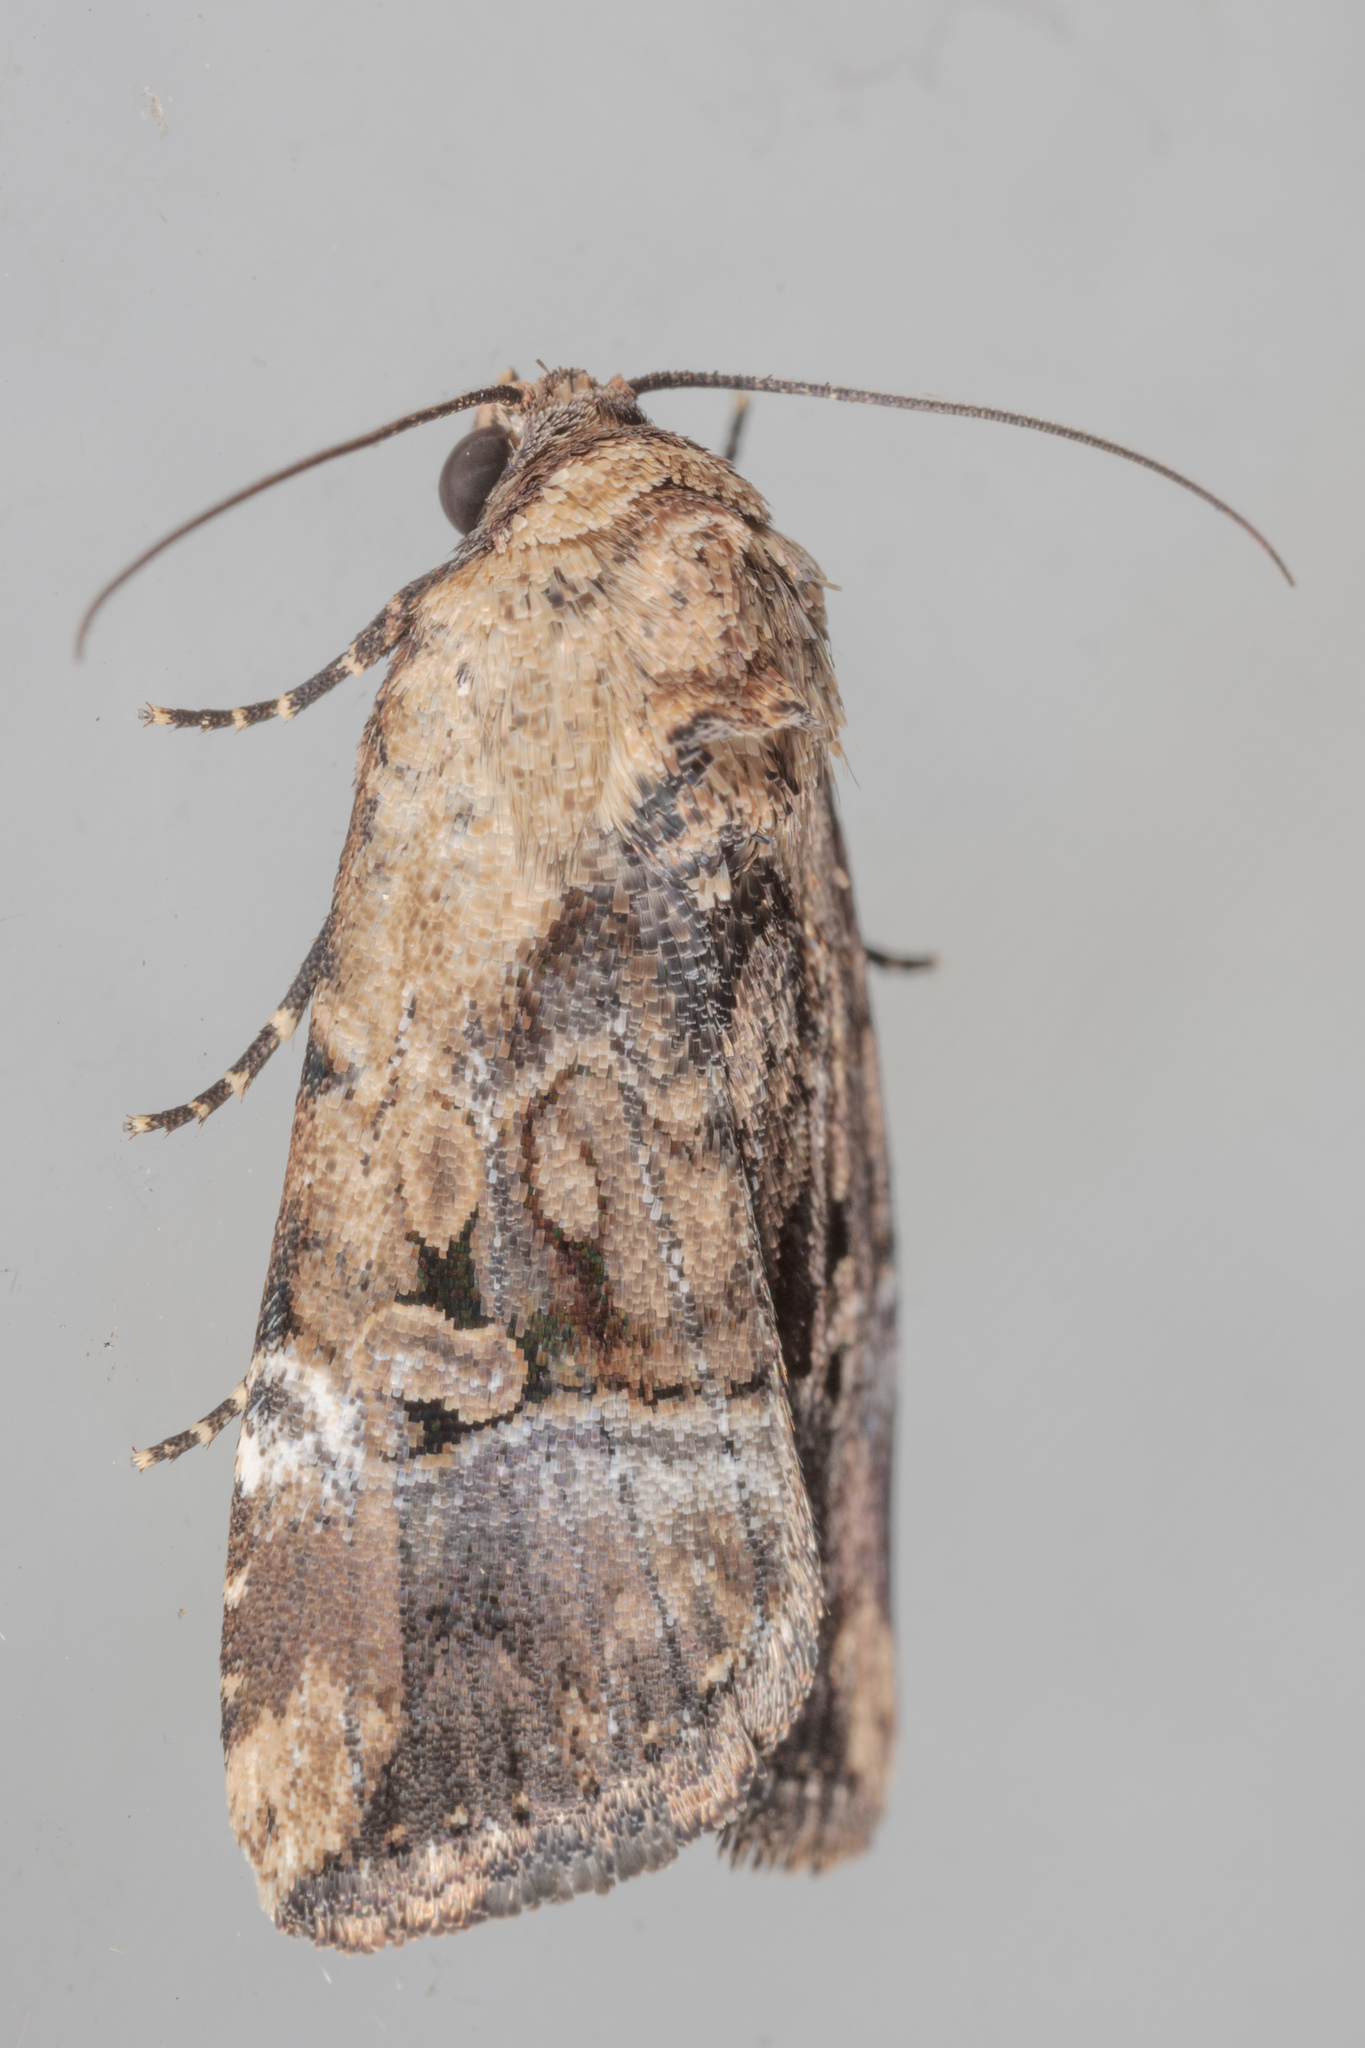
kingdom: Animalia
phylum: Arthropoda
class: Insecta
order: Lepidoptera
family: Noctuidae
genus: Elaphria
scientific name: Elaphria chalcedonia
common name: Chalcedony midget
